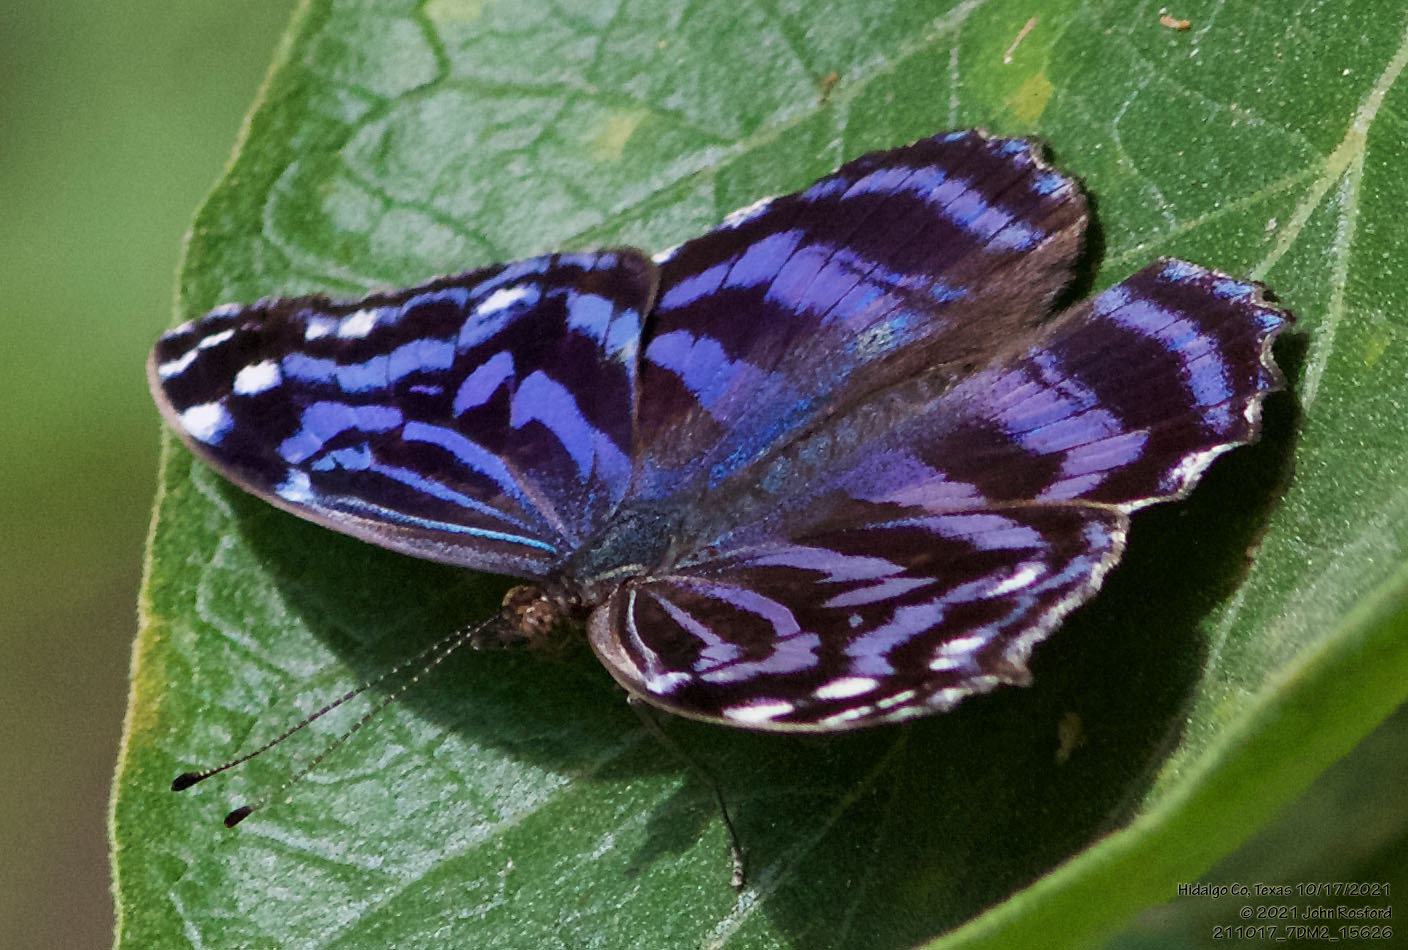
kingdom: Animalia
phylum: Arthropoda
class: Insecta
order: Lepidoptera
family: Nymphalidae
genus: Myscelia
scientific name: Myscelia ethusa
